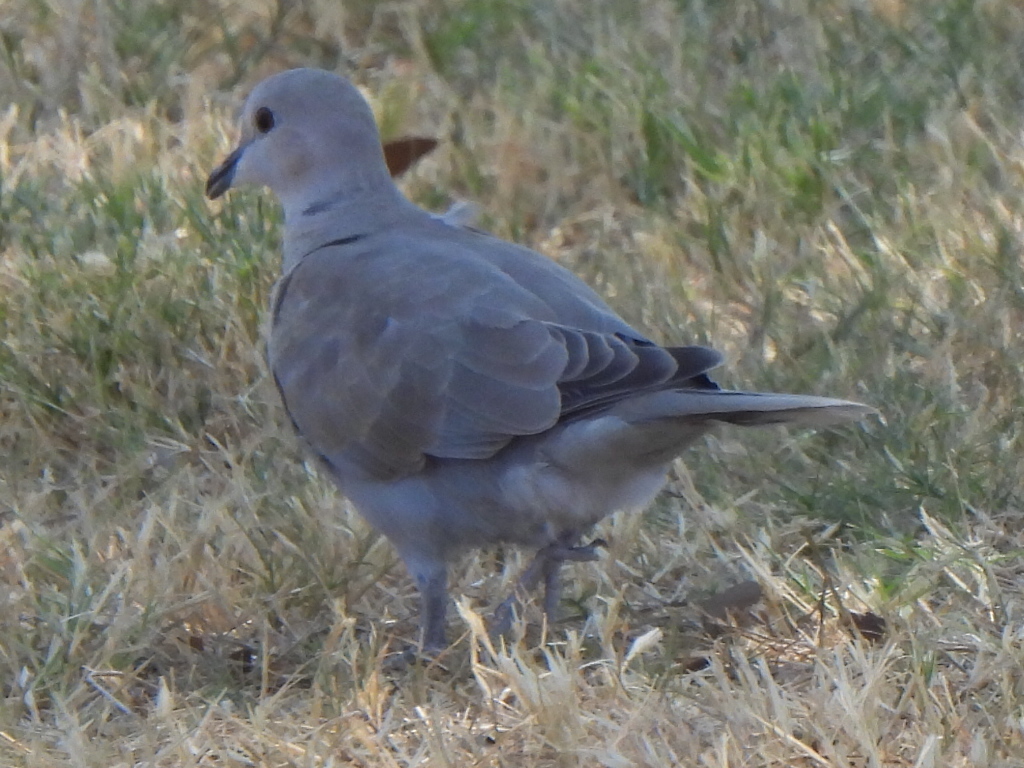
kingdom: Animalia
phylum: Chordata
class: Aves
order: Columbiformes
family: Columbidae
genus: Streptopelia
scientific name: Streptopelia decaocto
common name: Eurasian collared dove
